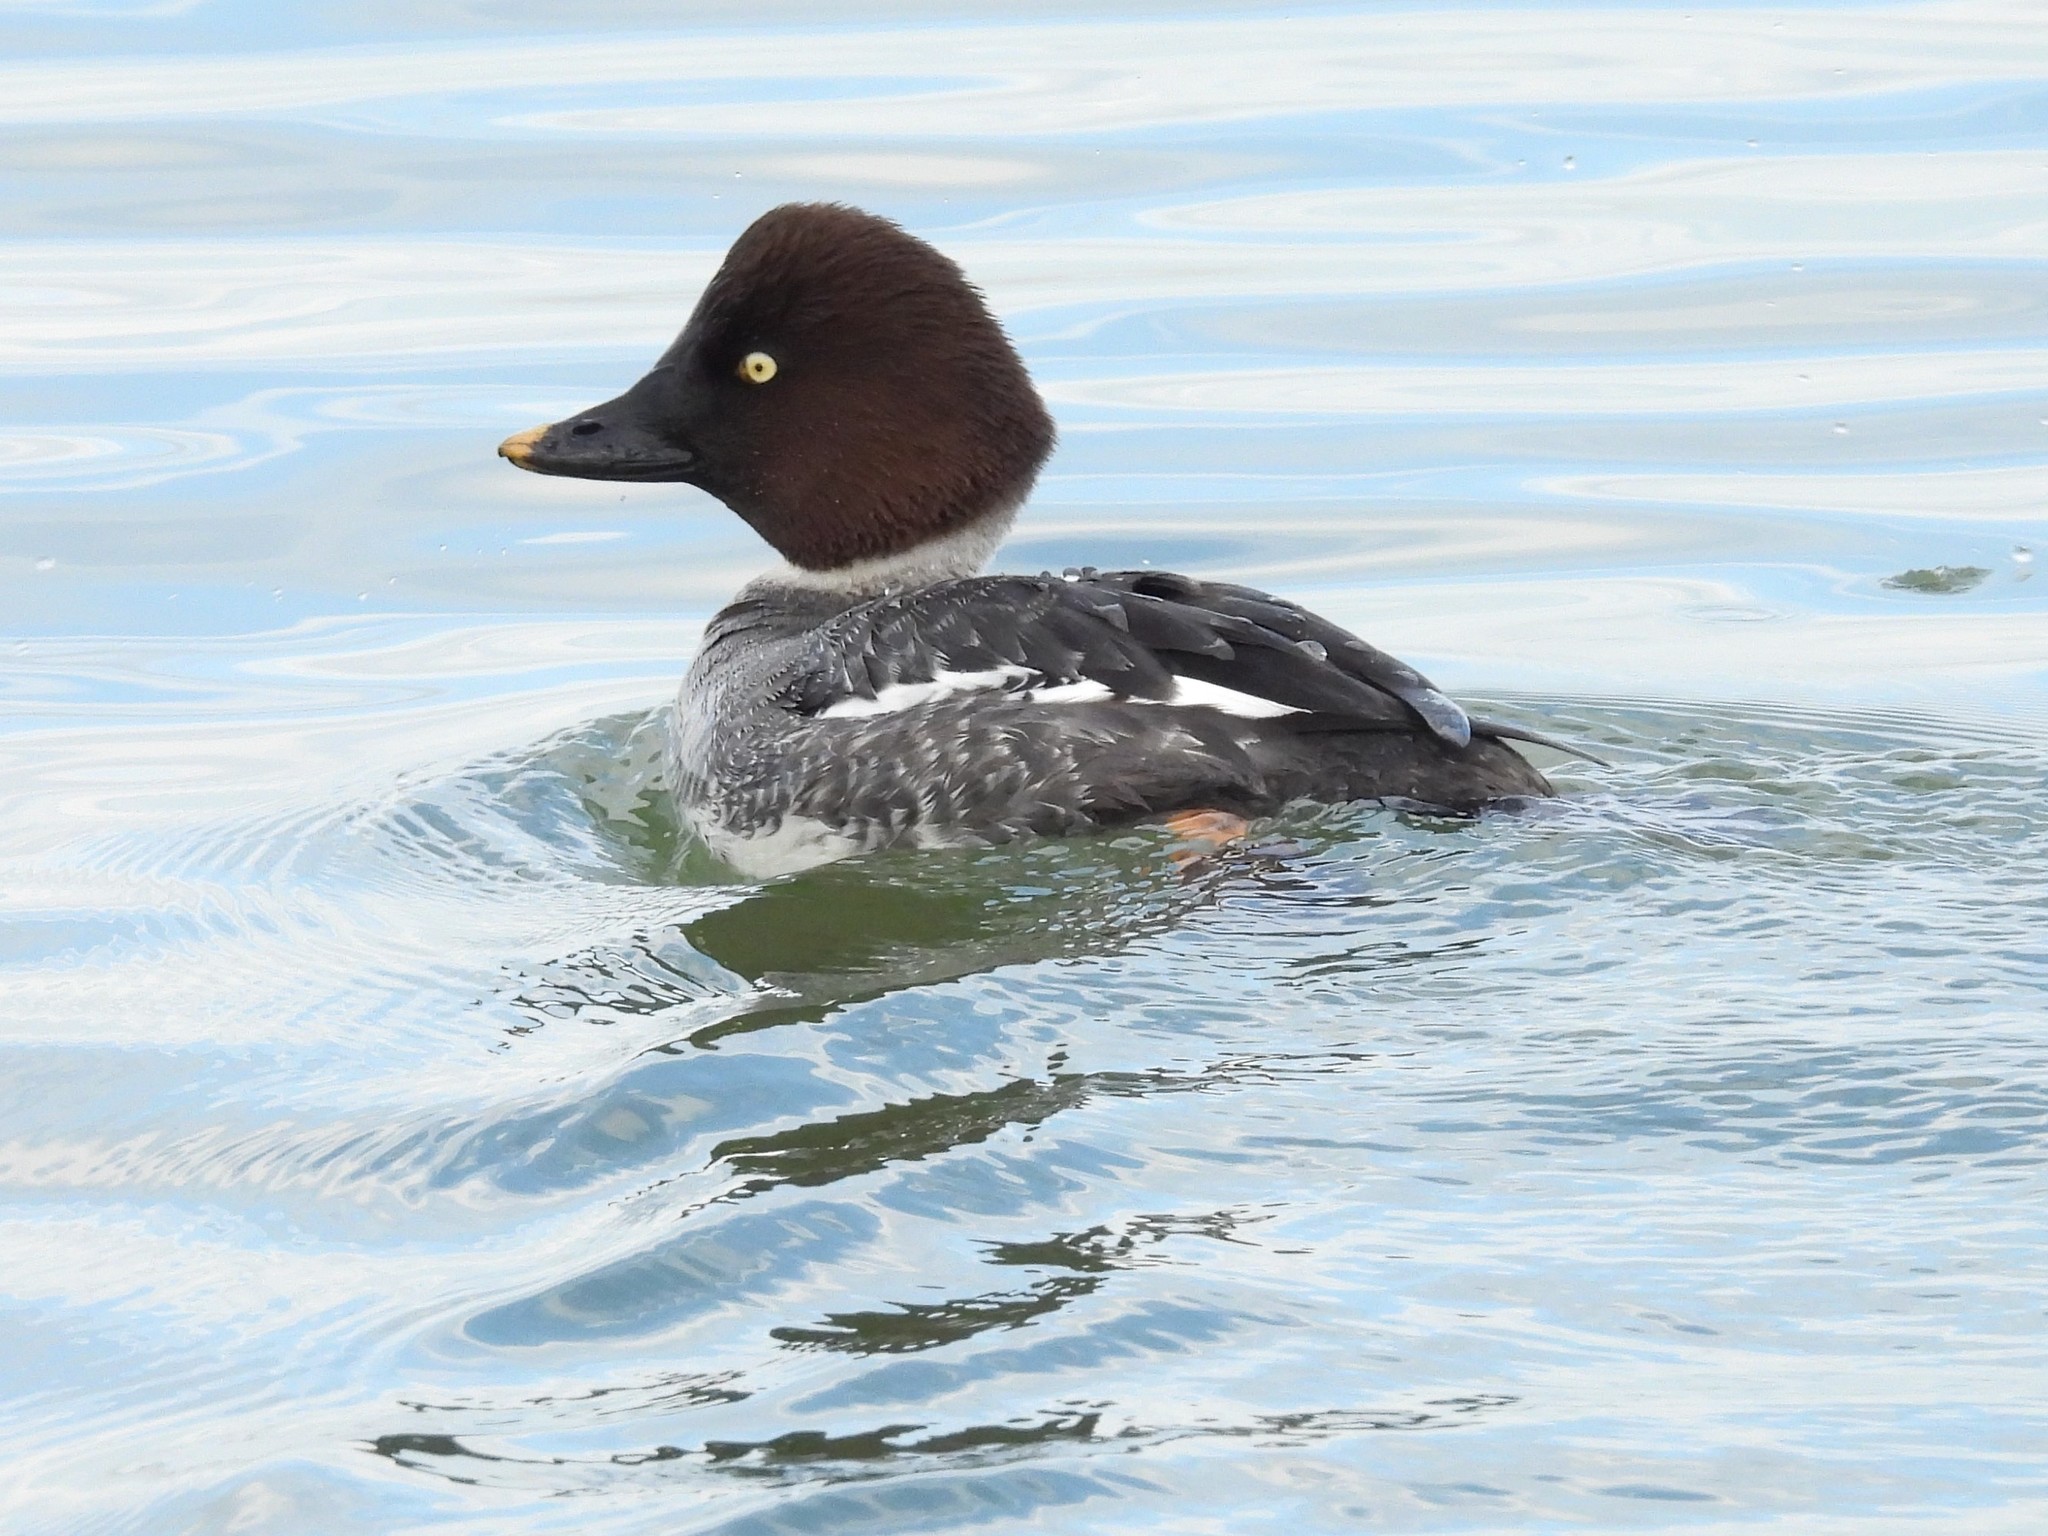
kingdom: Animalia
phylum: Chordata
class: Aves
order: Anseriformes
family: Anatidae
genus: Bucephala
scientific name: Bucephala clangula
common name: Common goldeneye
